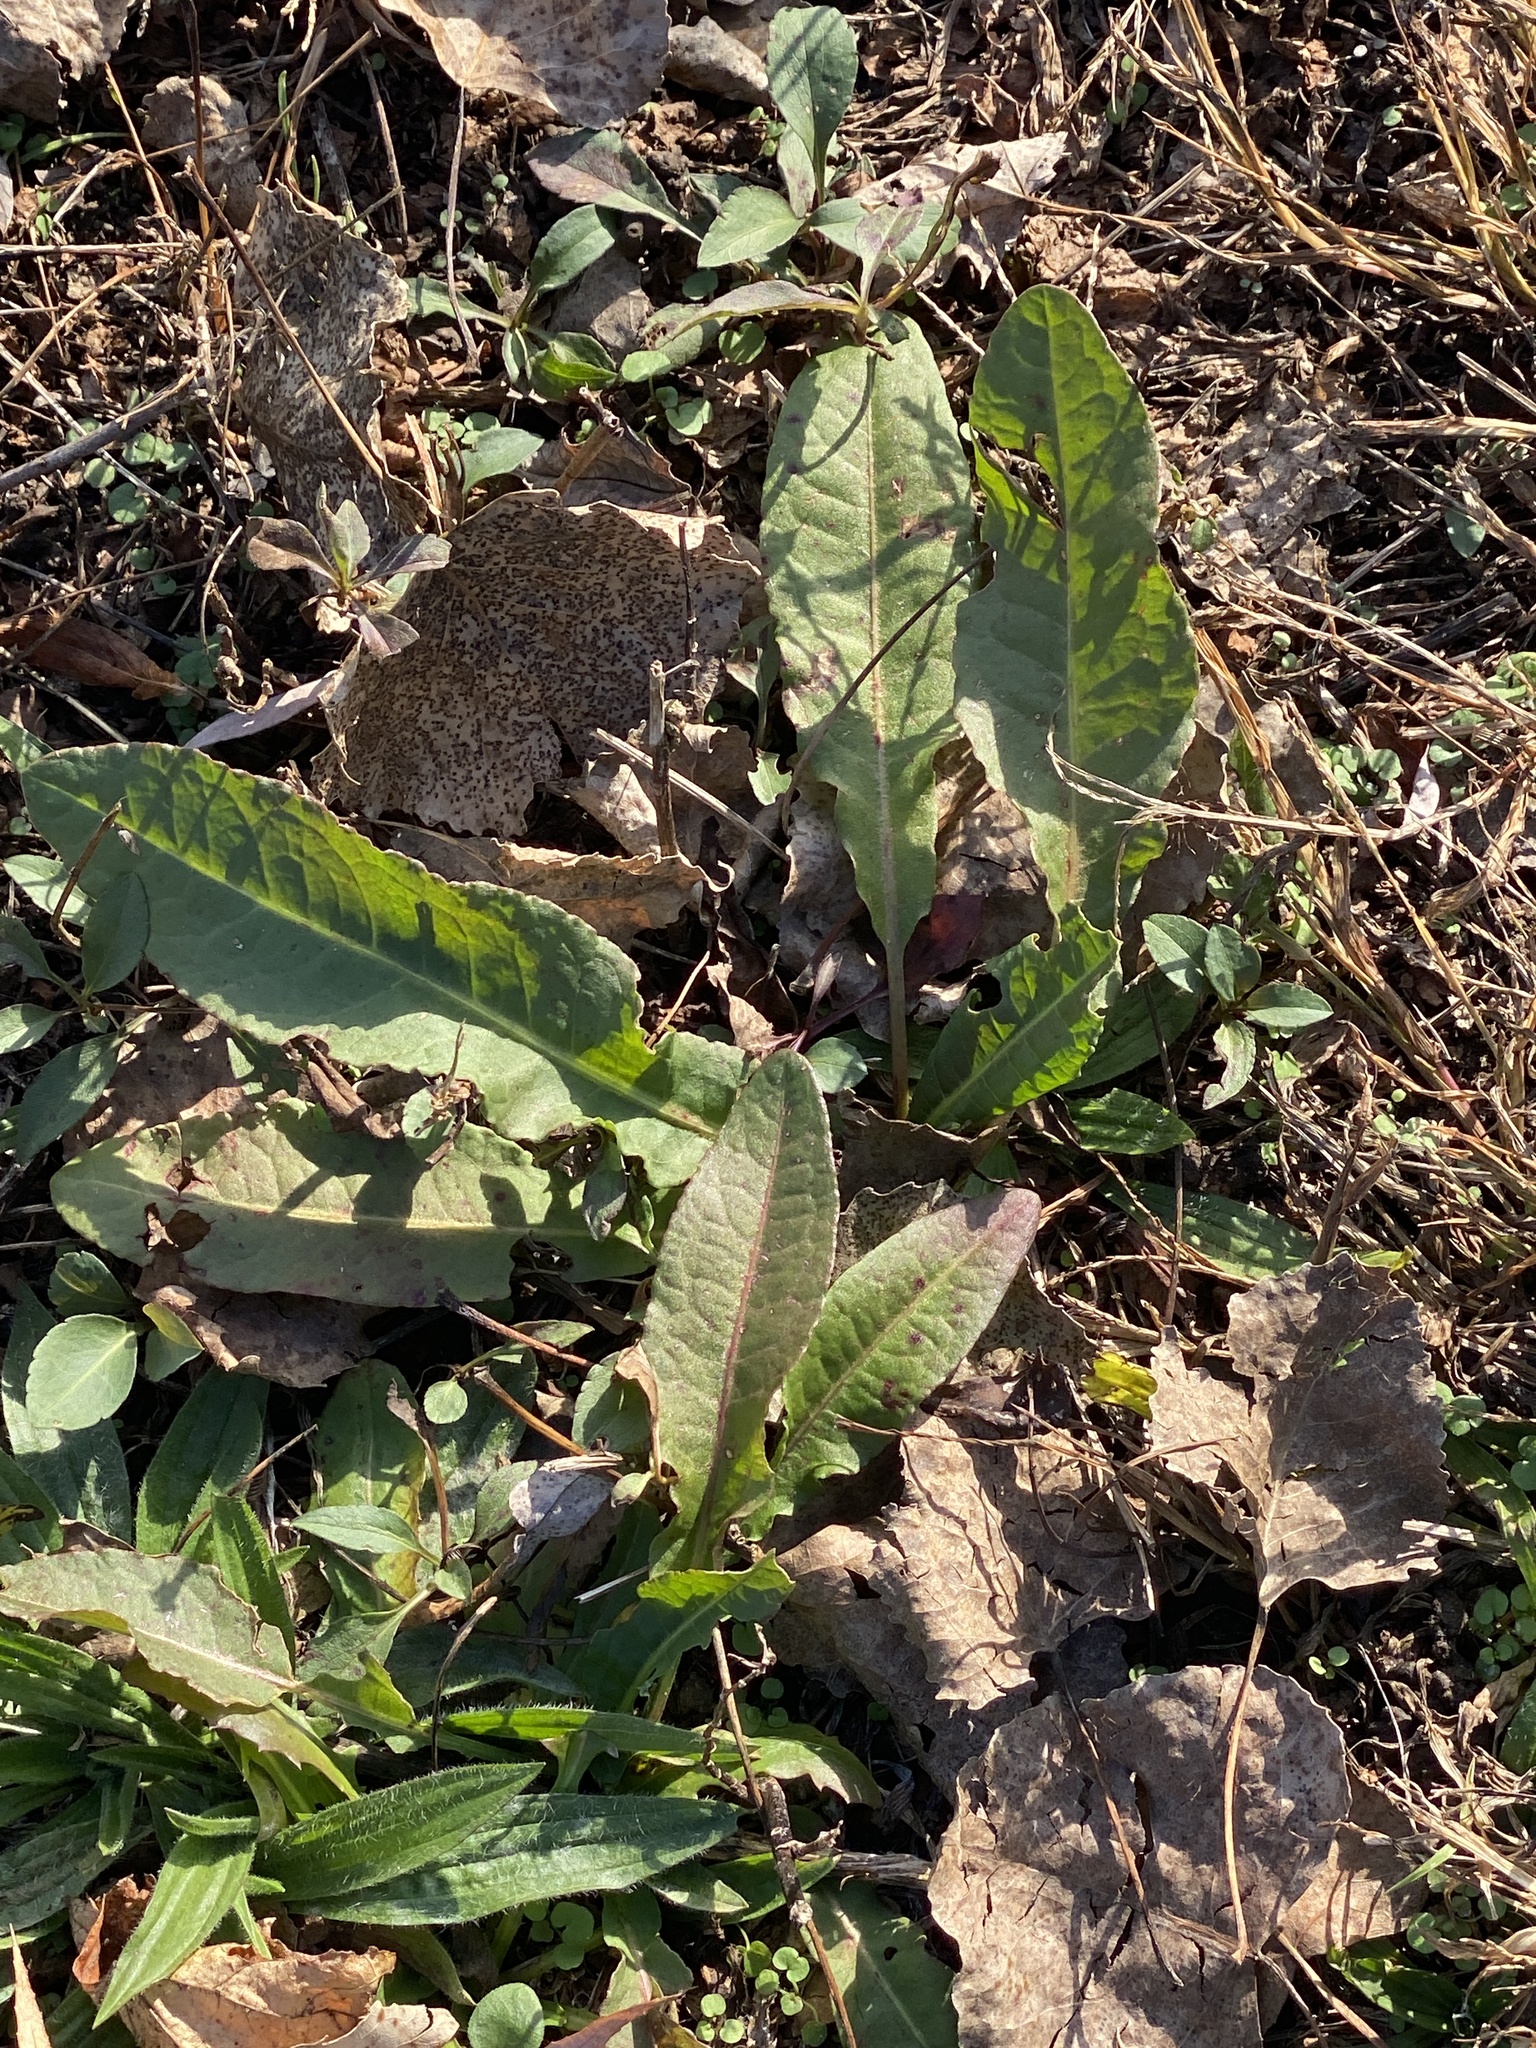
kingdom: Plantae
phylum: Tracheophyta
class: Magnoliopsida
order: Caryophyllales
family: Polygonaceae
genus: Rumex
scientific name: Rumex crispus
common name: Curled dock
